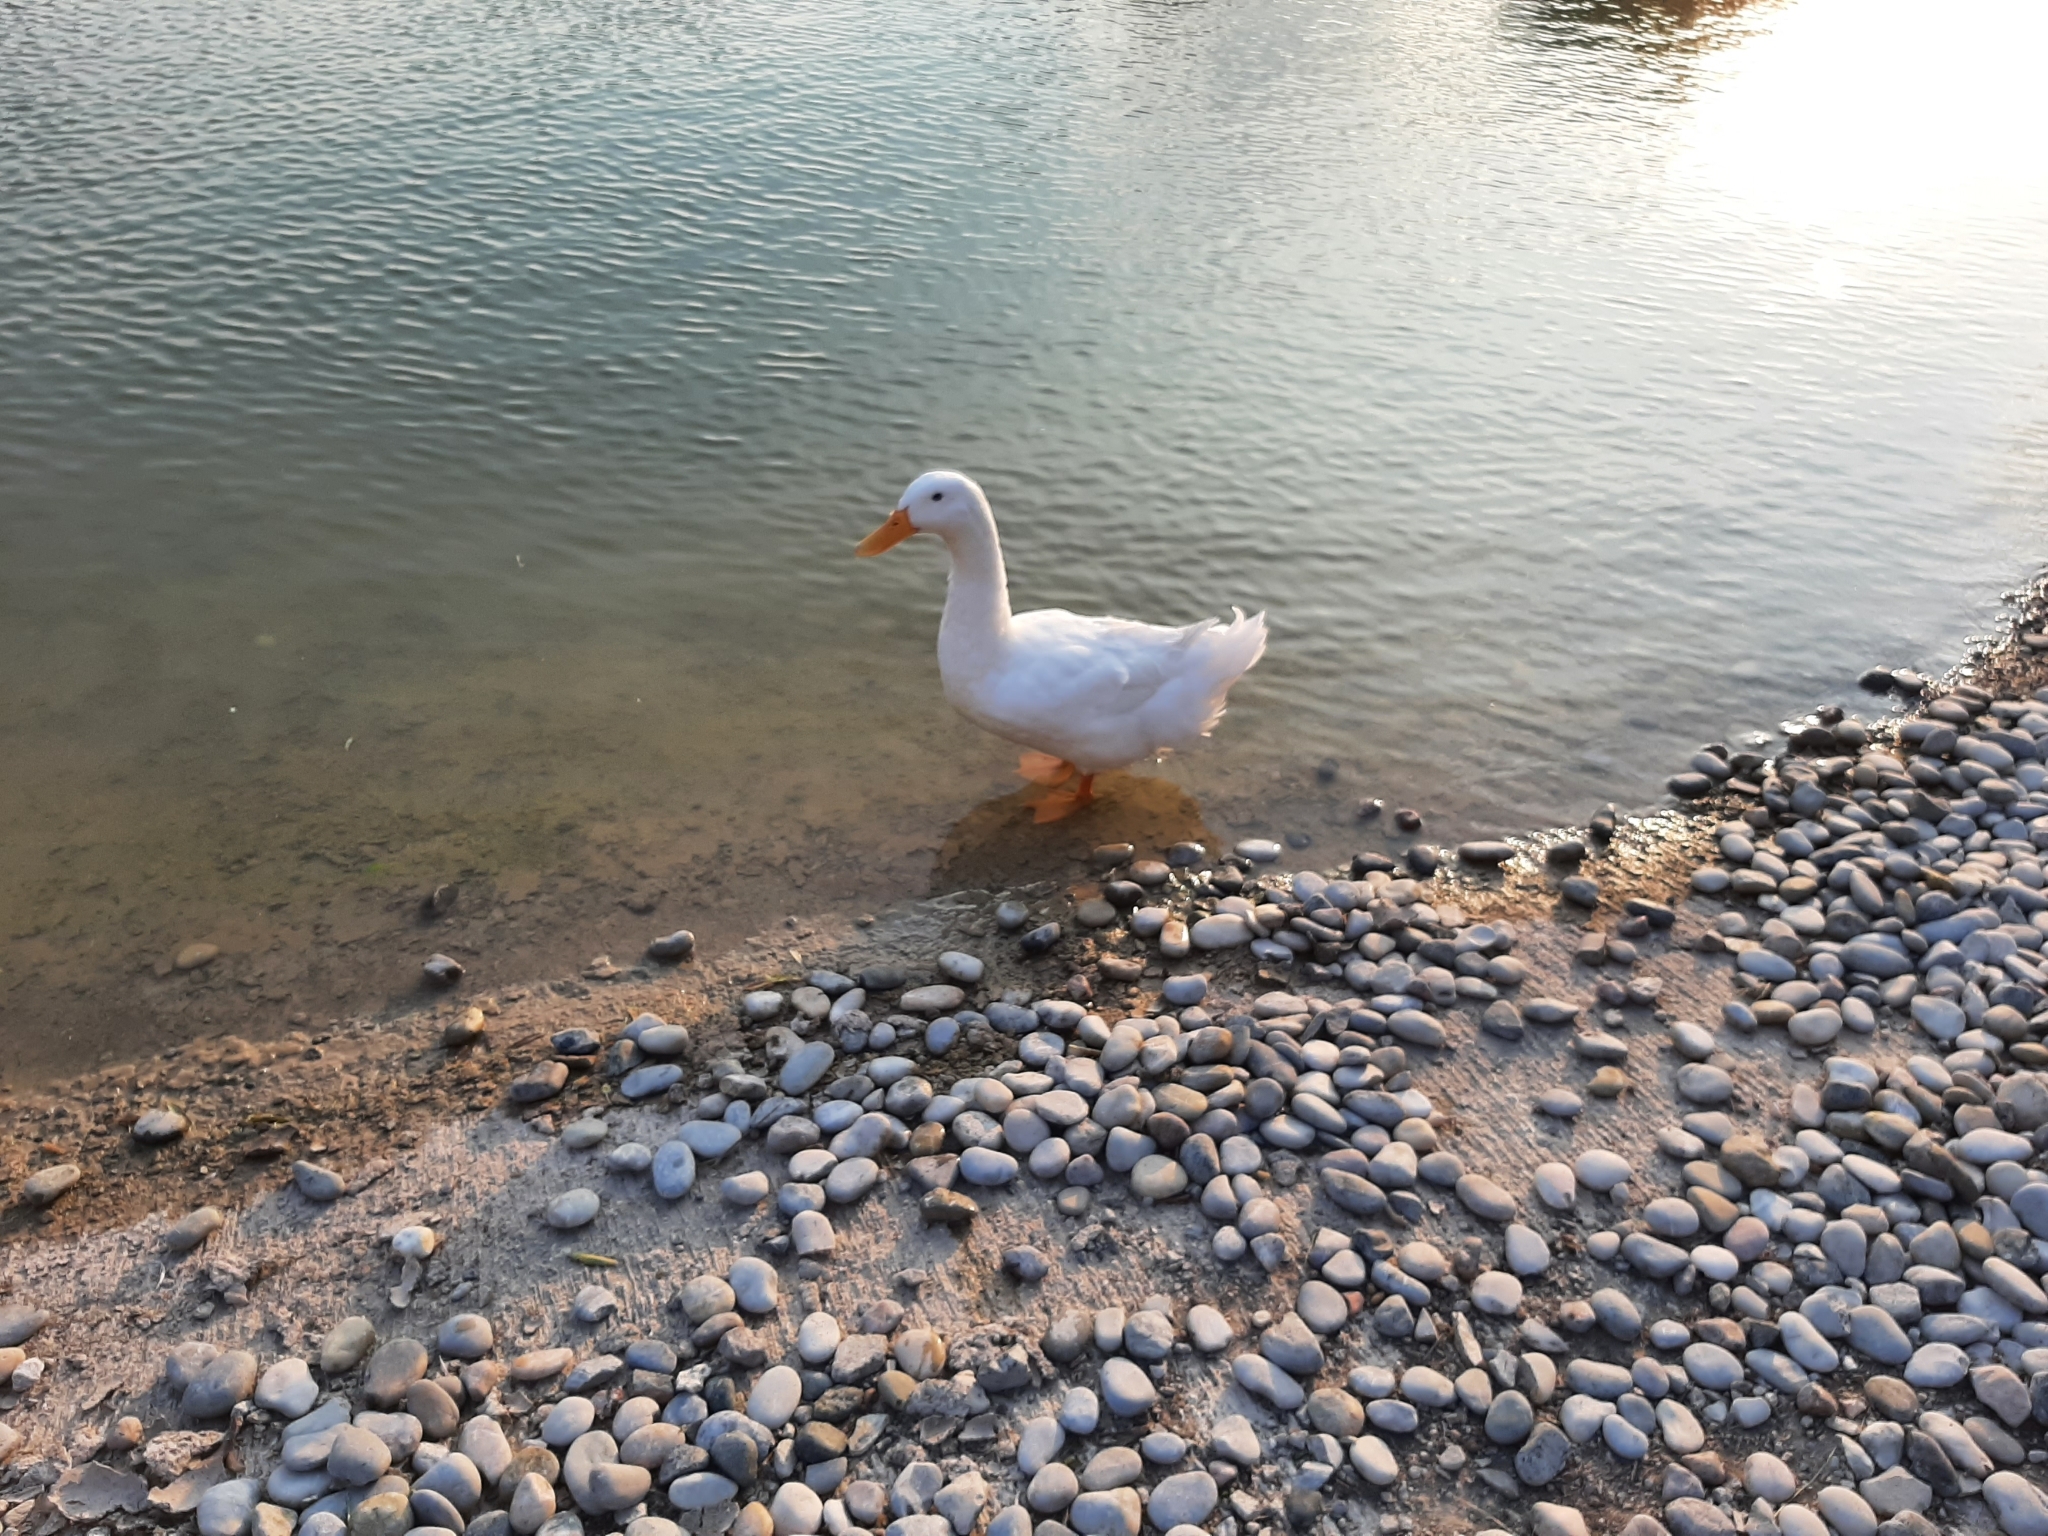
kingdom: Animalia
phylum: Chordata
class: Aves
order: Anseriformes
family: Anatidae
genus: Anas
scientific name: Anas platyrhynchos
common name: Mallard
